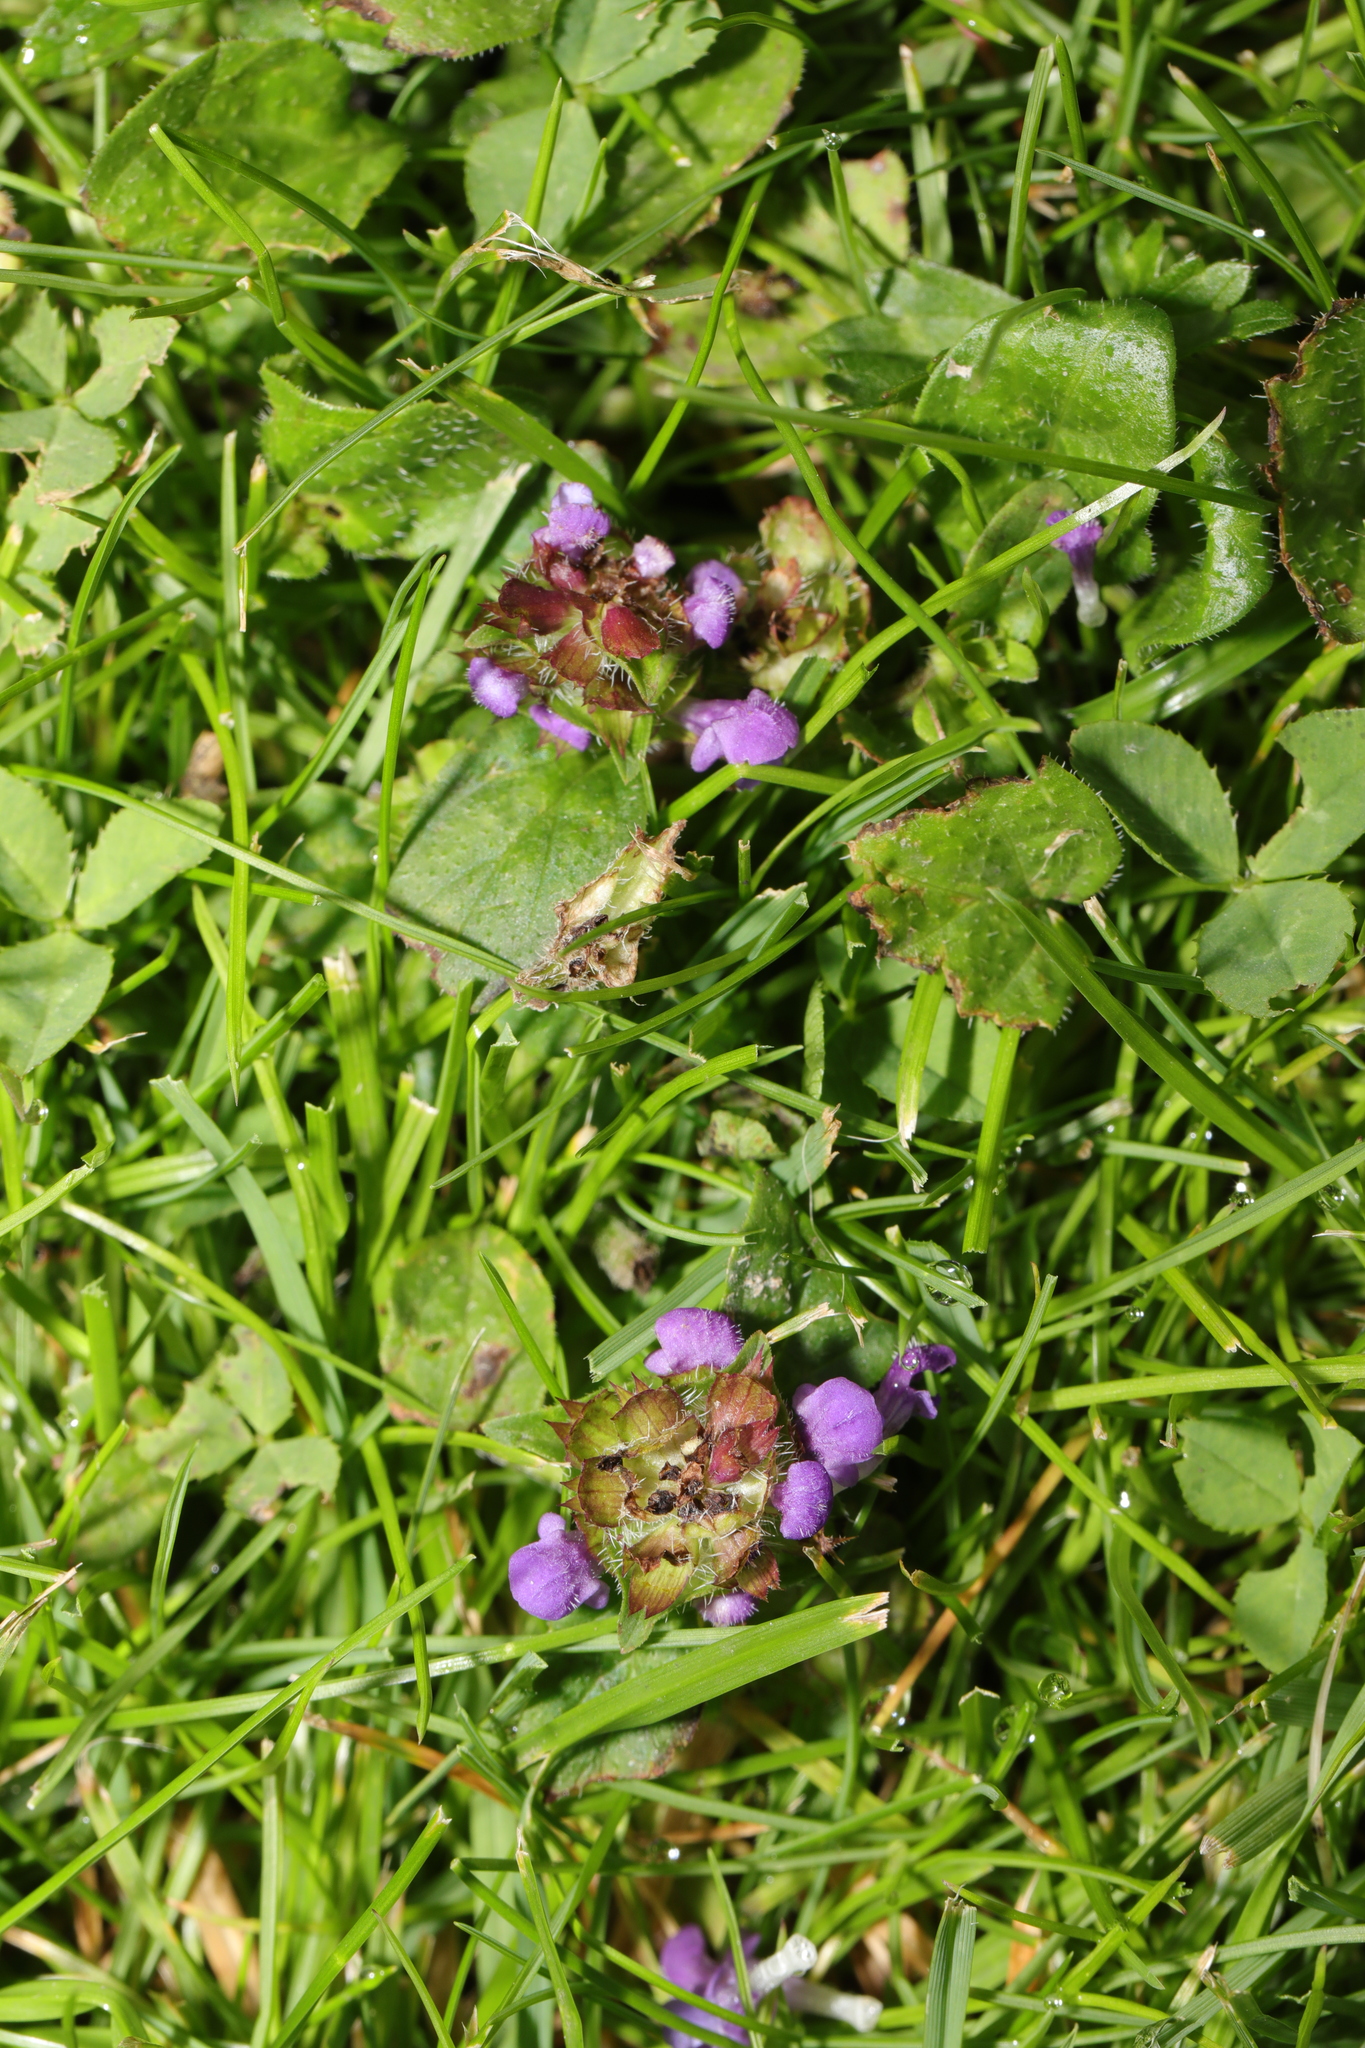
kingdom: Plantae
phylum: Tracheophyta
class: Magnoliopsida
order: Lamiales
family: Lamiaceae
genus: Prunella
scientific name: Prunella vulgaris
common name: Heal-all
